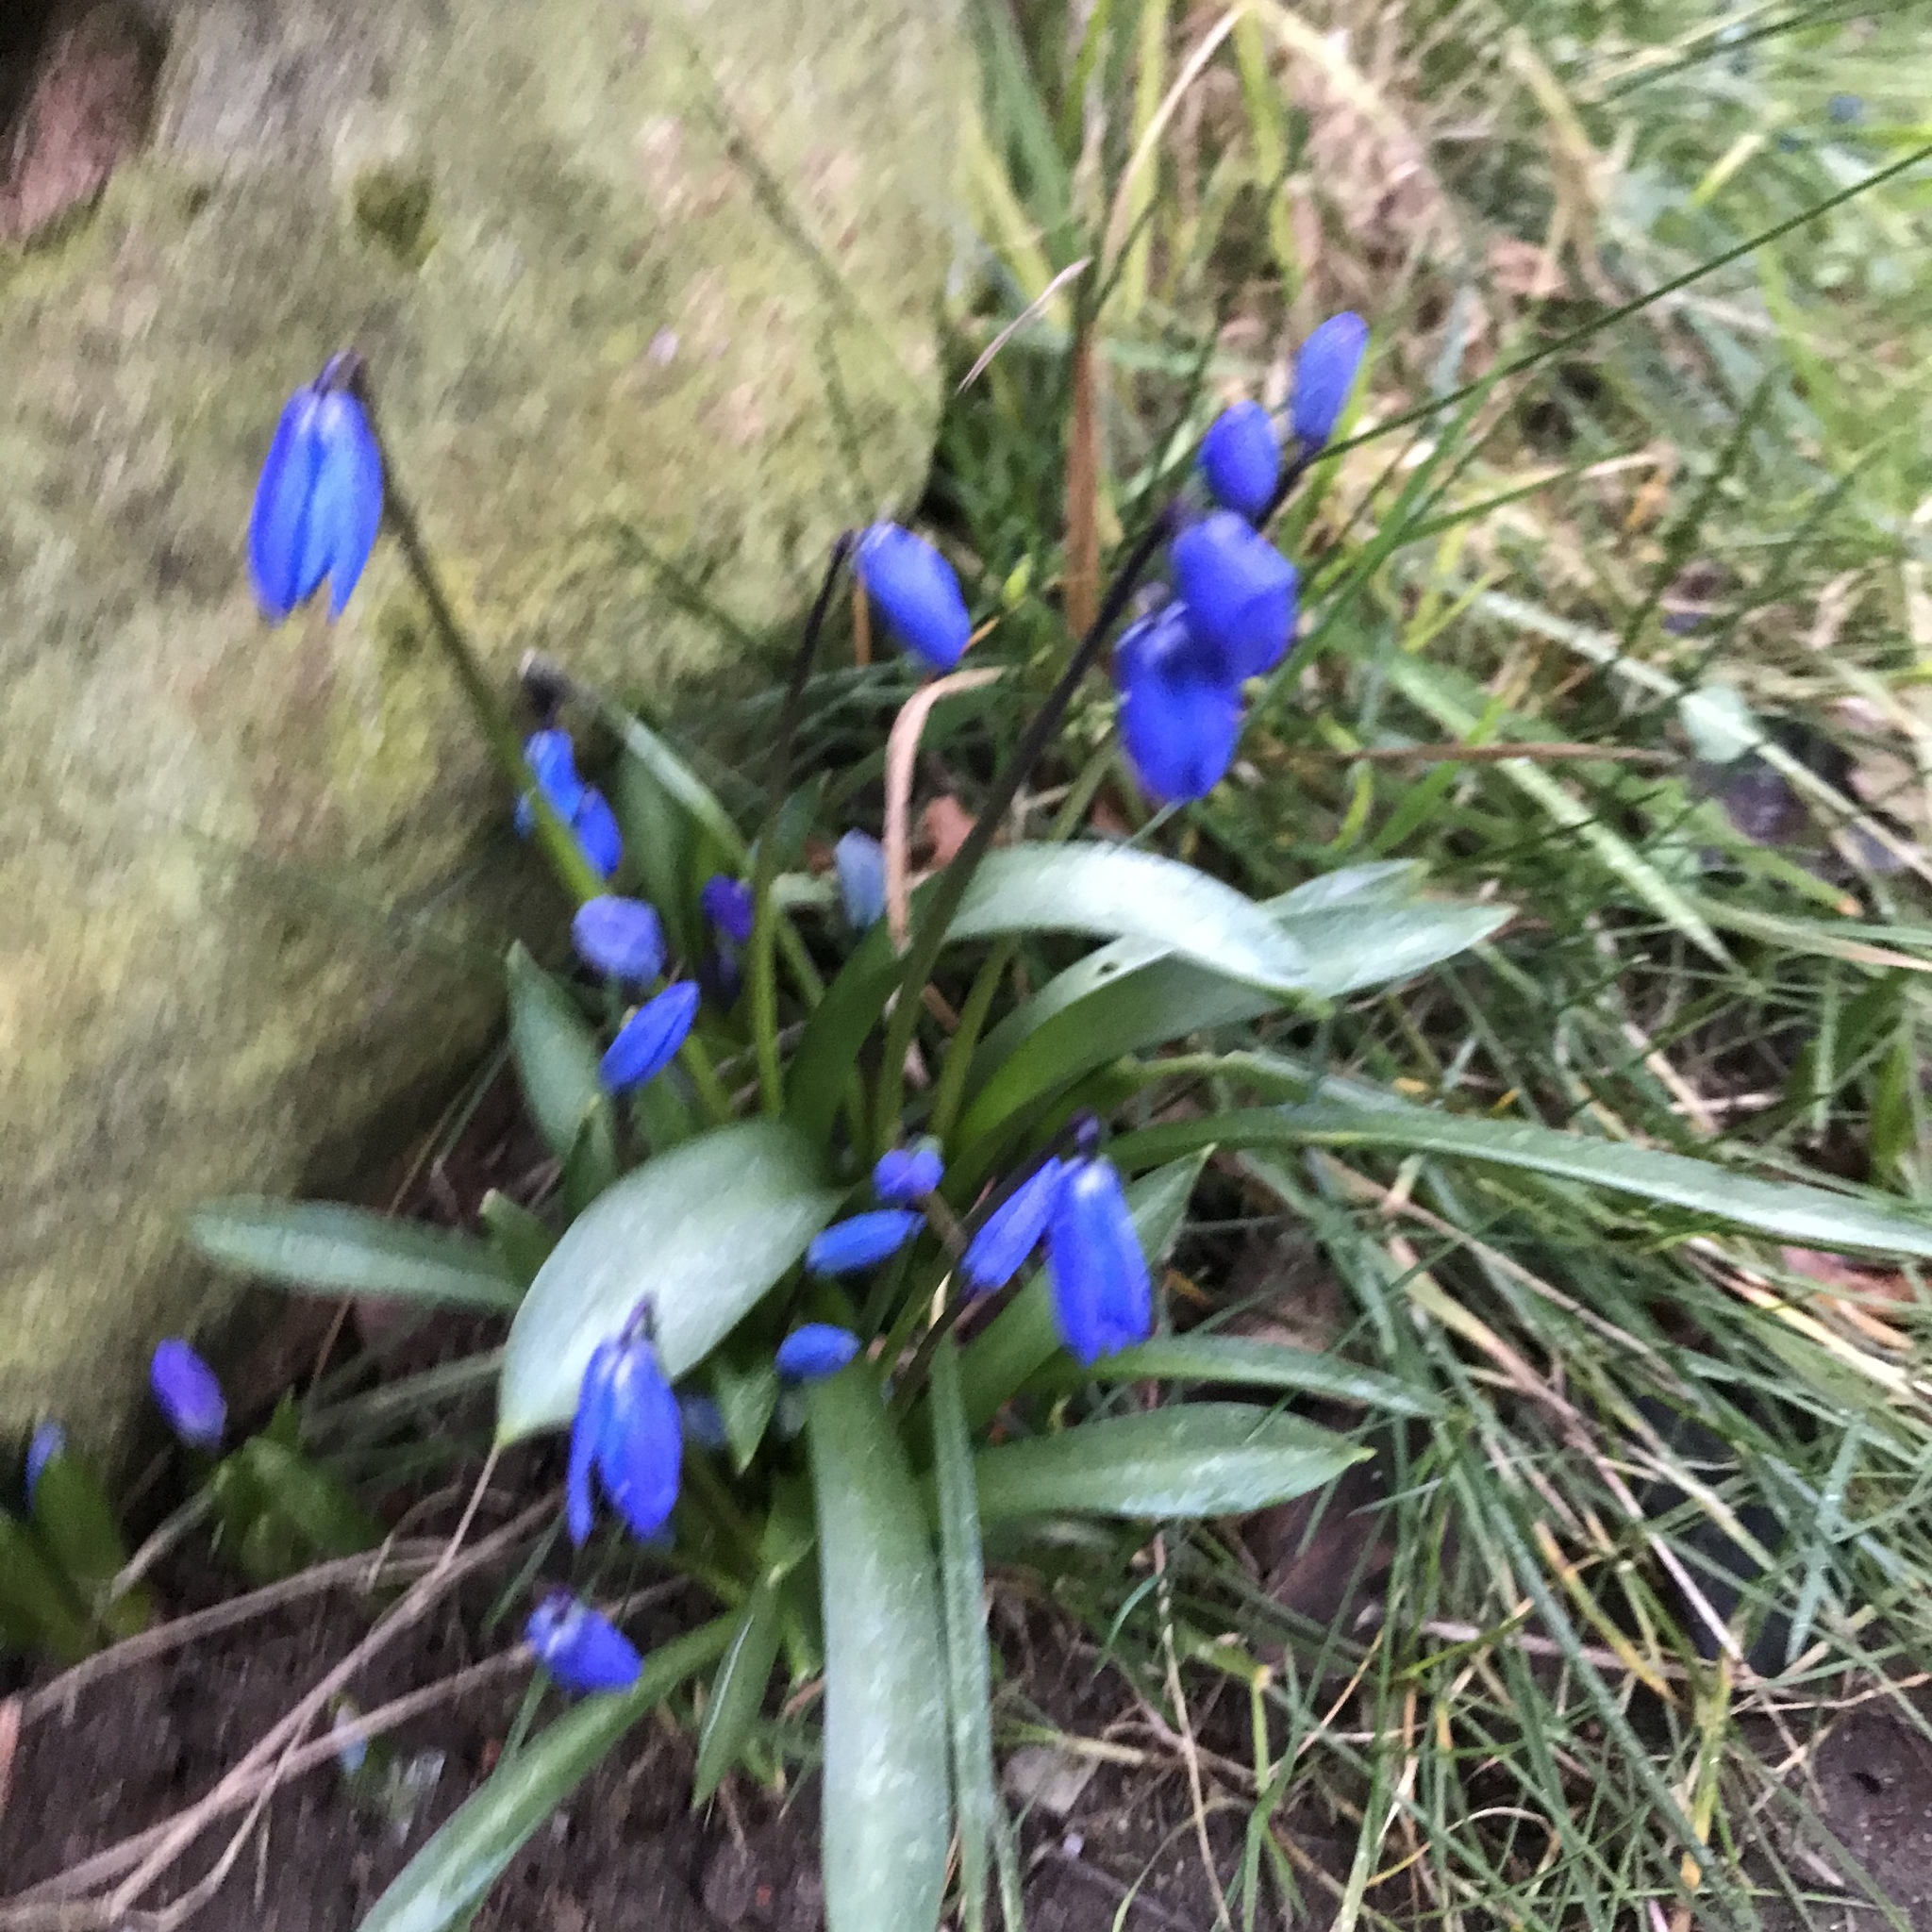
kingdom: Plantae
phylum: Tracheophyta
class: Liliopsida
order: Asparagales
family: Asparagaceae
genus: Scilla
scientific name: Scilla siberica
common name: Siberian squill
